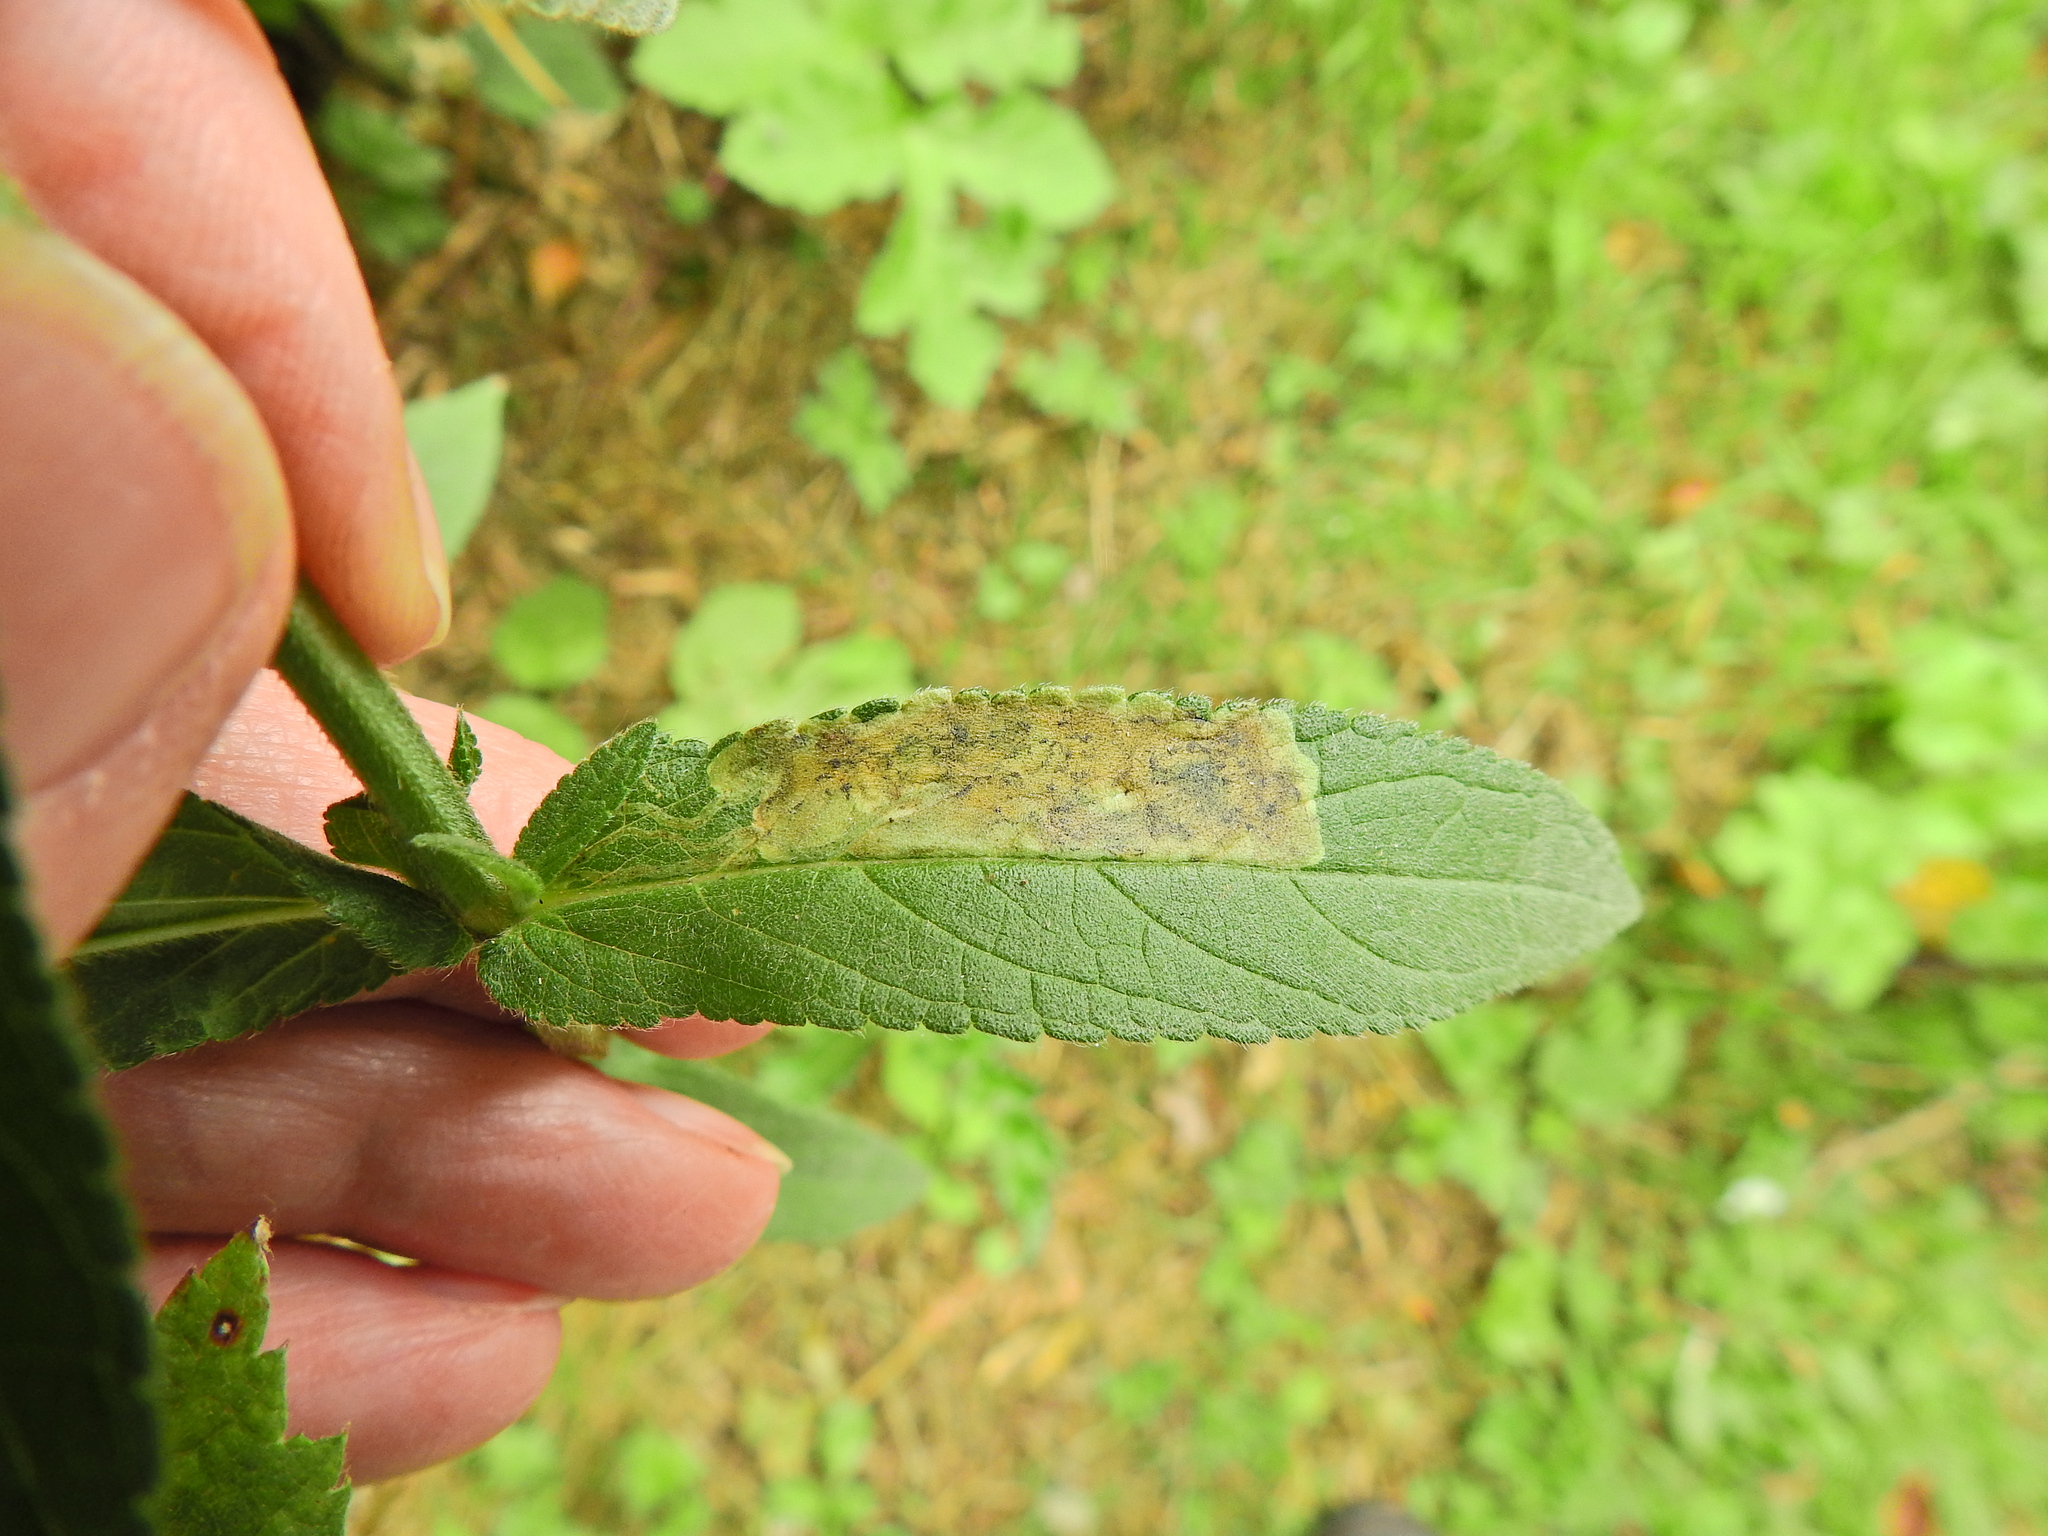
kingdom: Animalia
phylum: Arthropoda
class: Insecta
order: Diptera
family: Agromyzidae
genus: Amauromyza
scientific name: Amauromyza labiatarum
